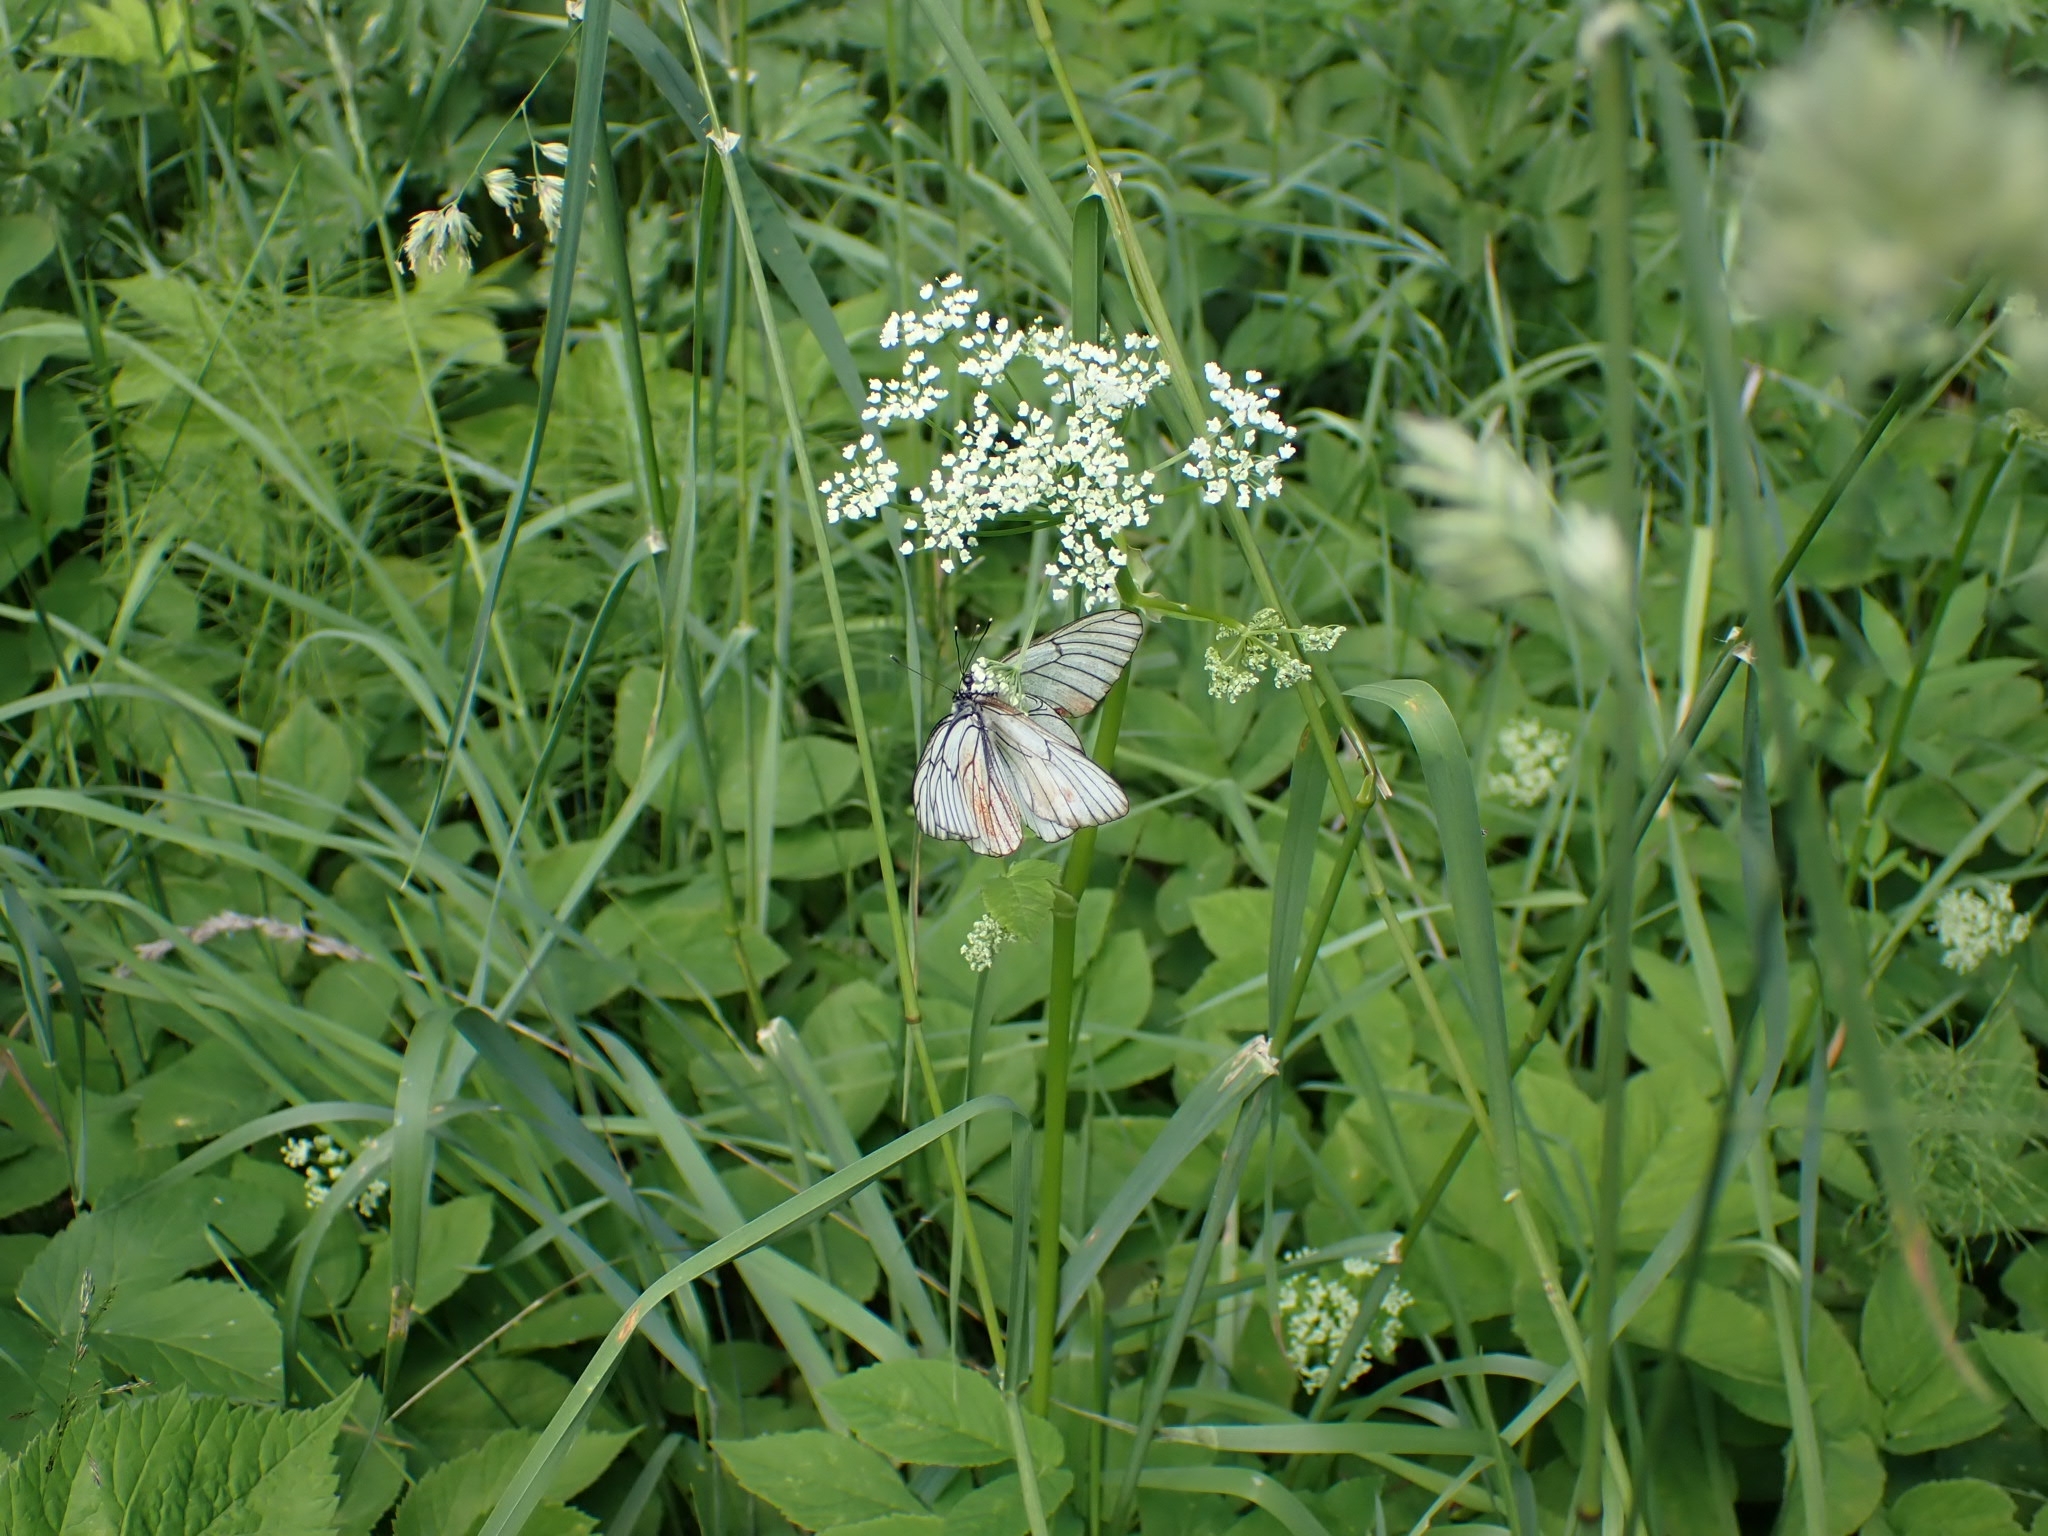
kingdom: Animalia
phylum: Arthropoda
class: Insecta
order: Lepidoptera
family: Pieridae
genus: Aporia
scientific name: Aporia crataegi
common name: Black-veined white
